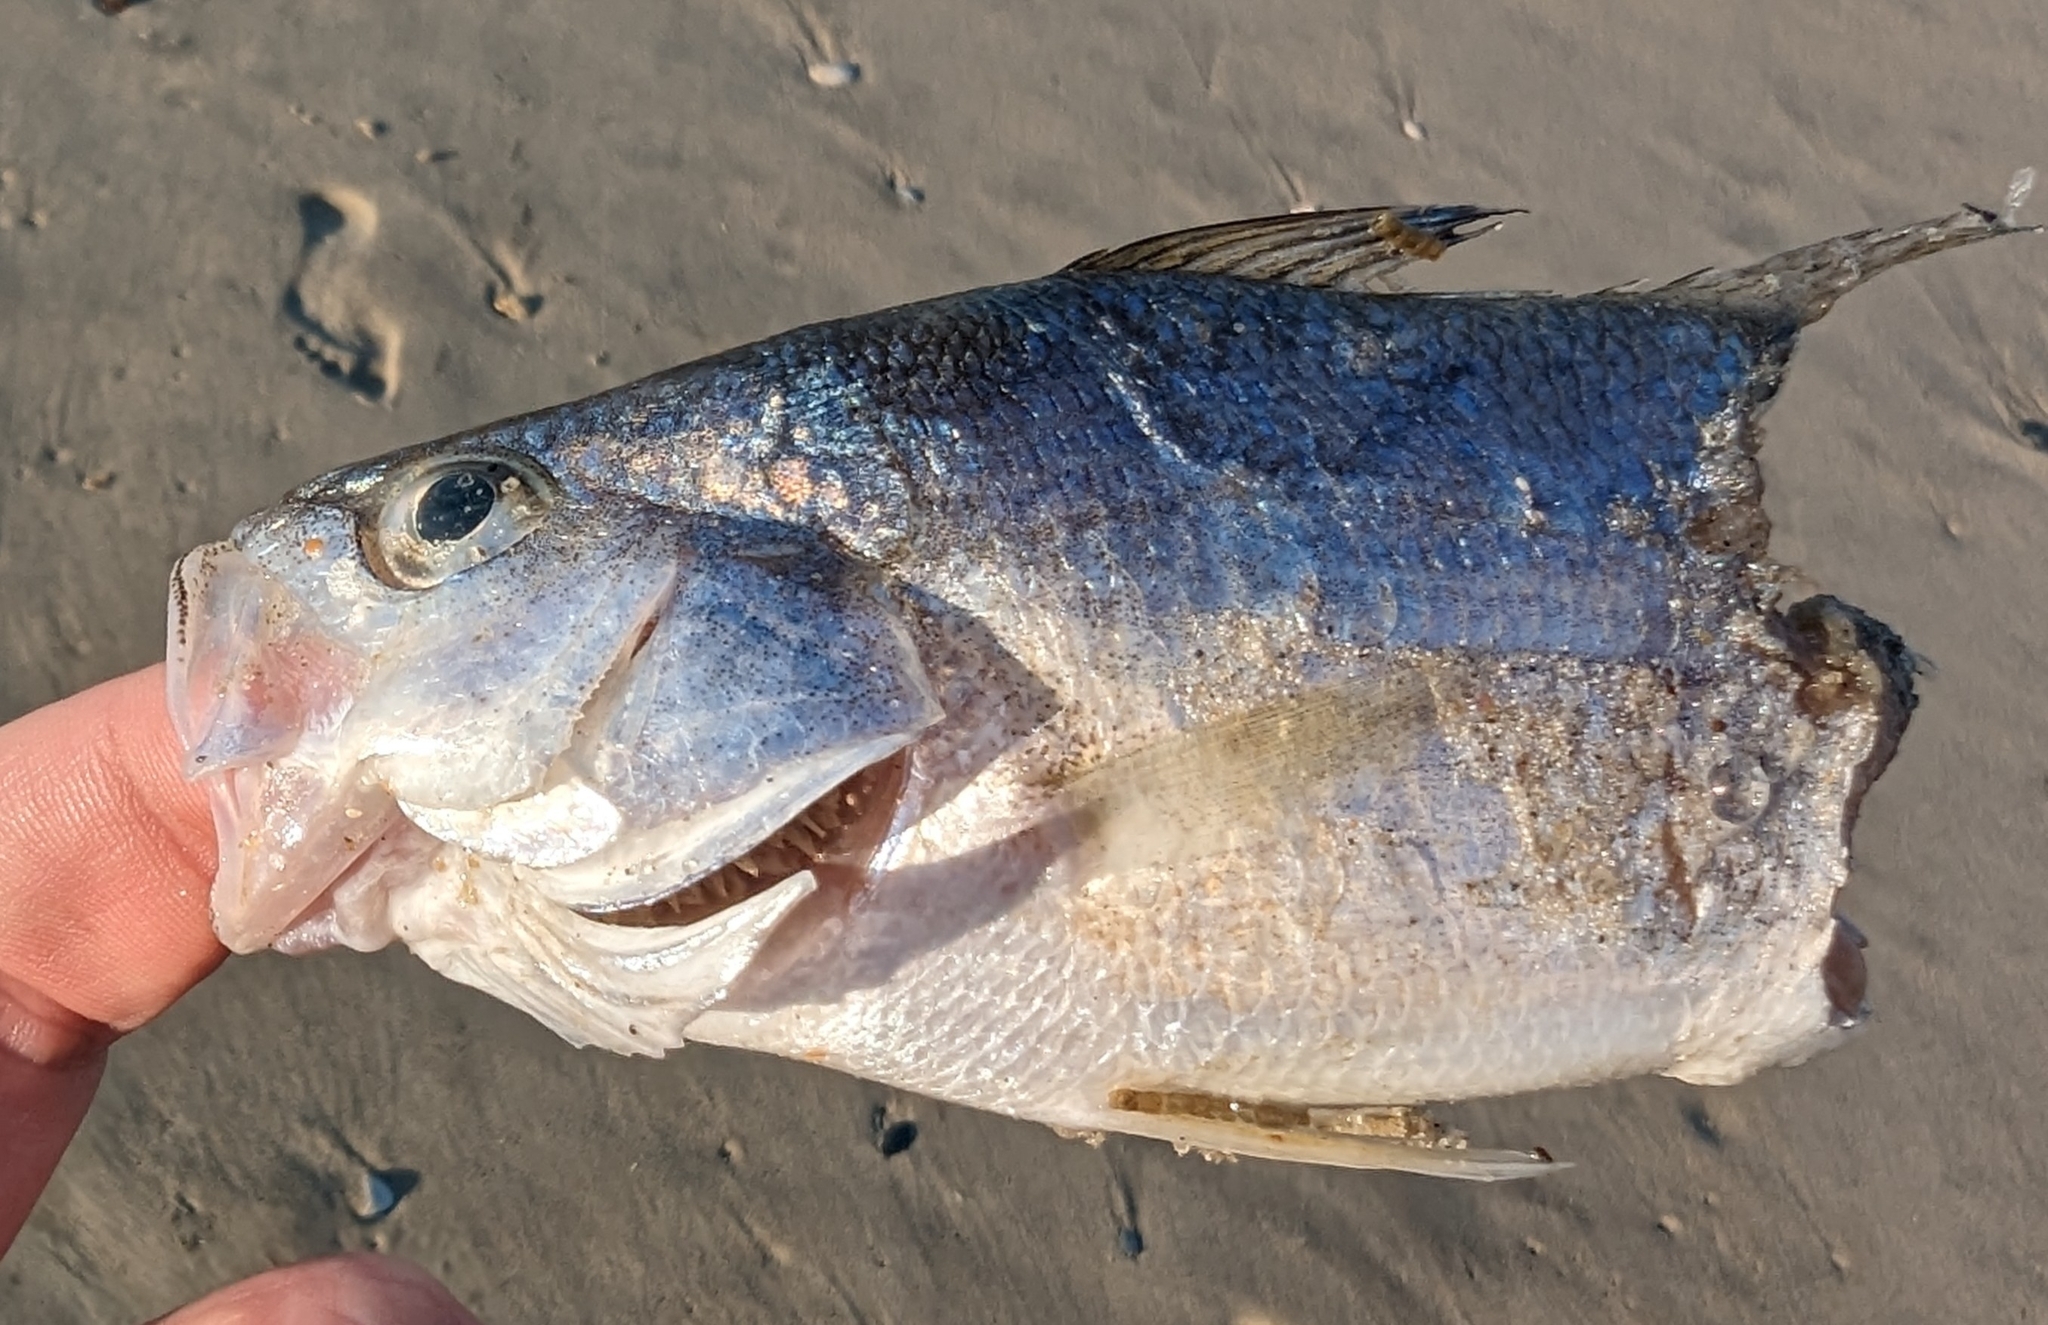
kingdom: Animalia
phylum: Chordata
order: Perciformes
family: Sciaenidae
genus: Bairdiella
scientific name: Bairdiella chrysoura
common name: Silver perch
